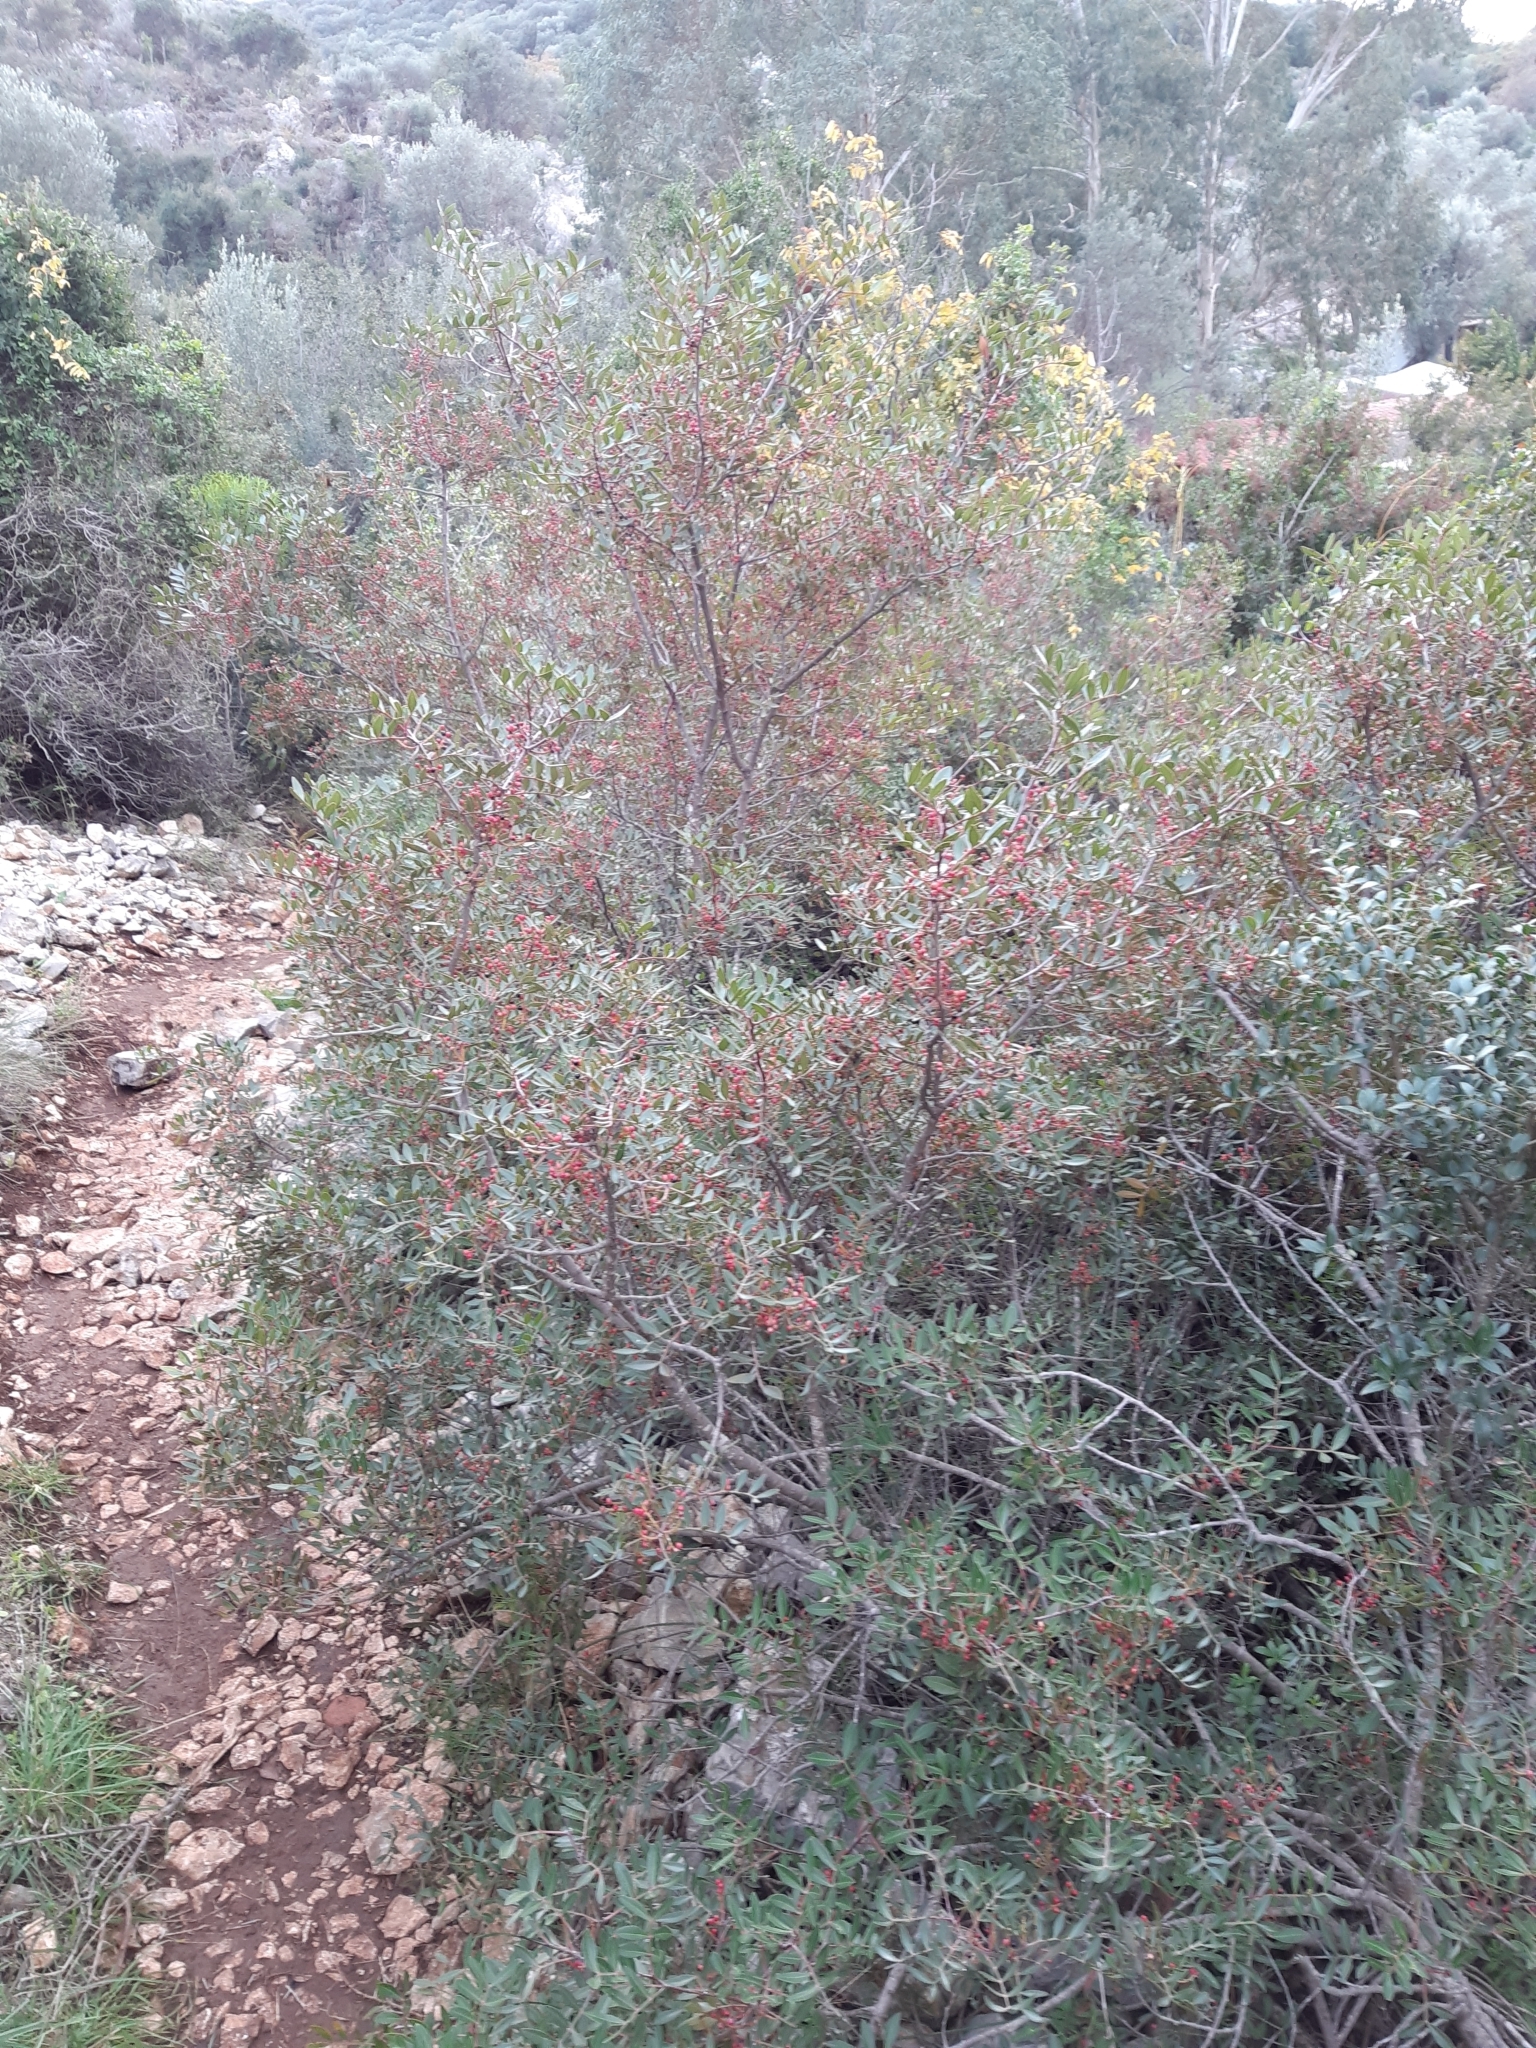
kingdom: Plantae
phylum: Tracheophyta
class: Magnoliopsida
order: Sapindales
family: Anacardiaceae
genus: Pistacia
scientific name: Pistacia lentiscus
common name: Lentisk
